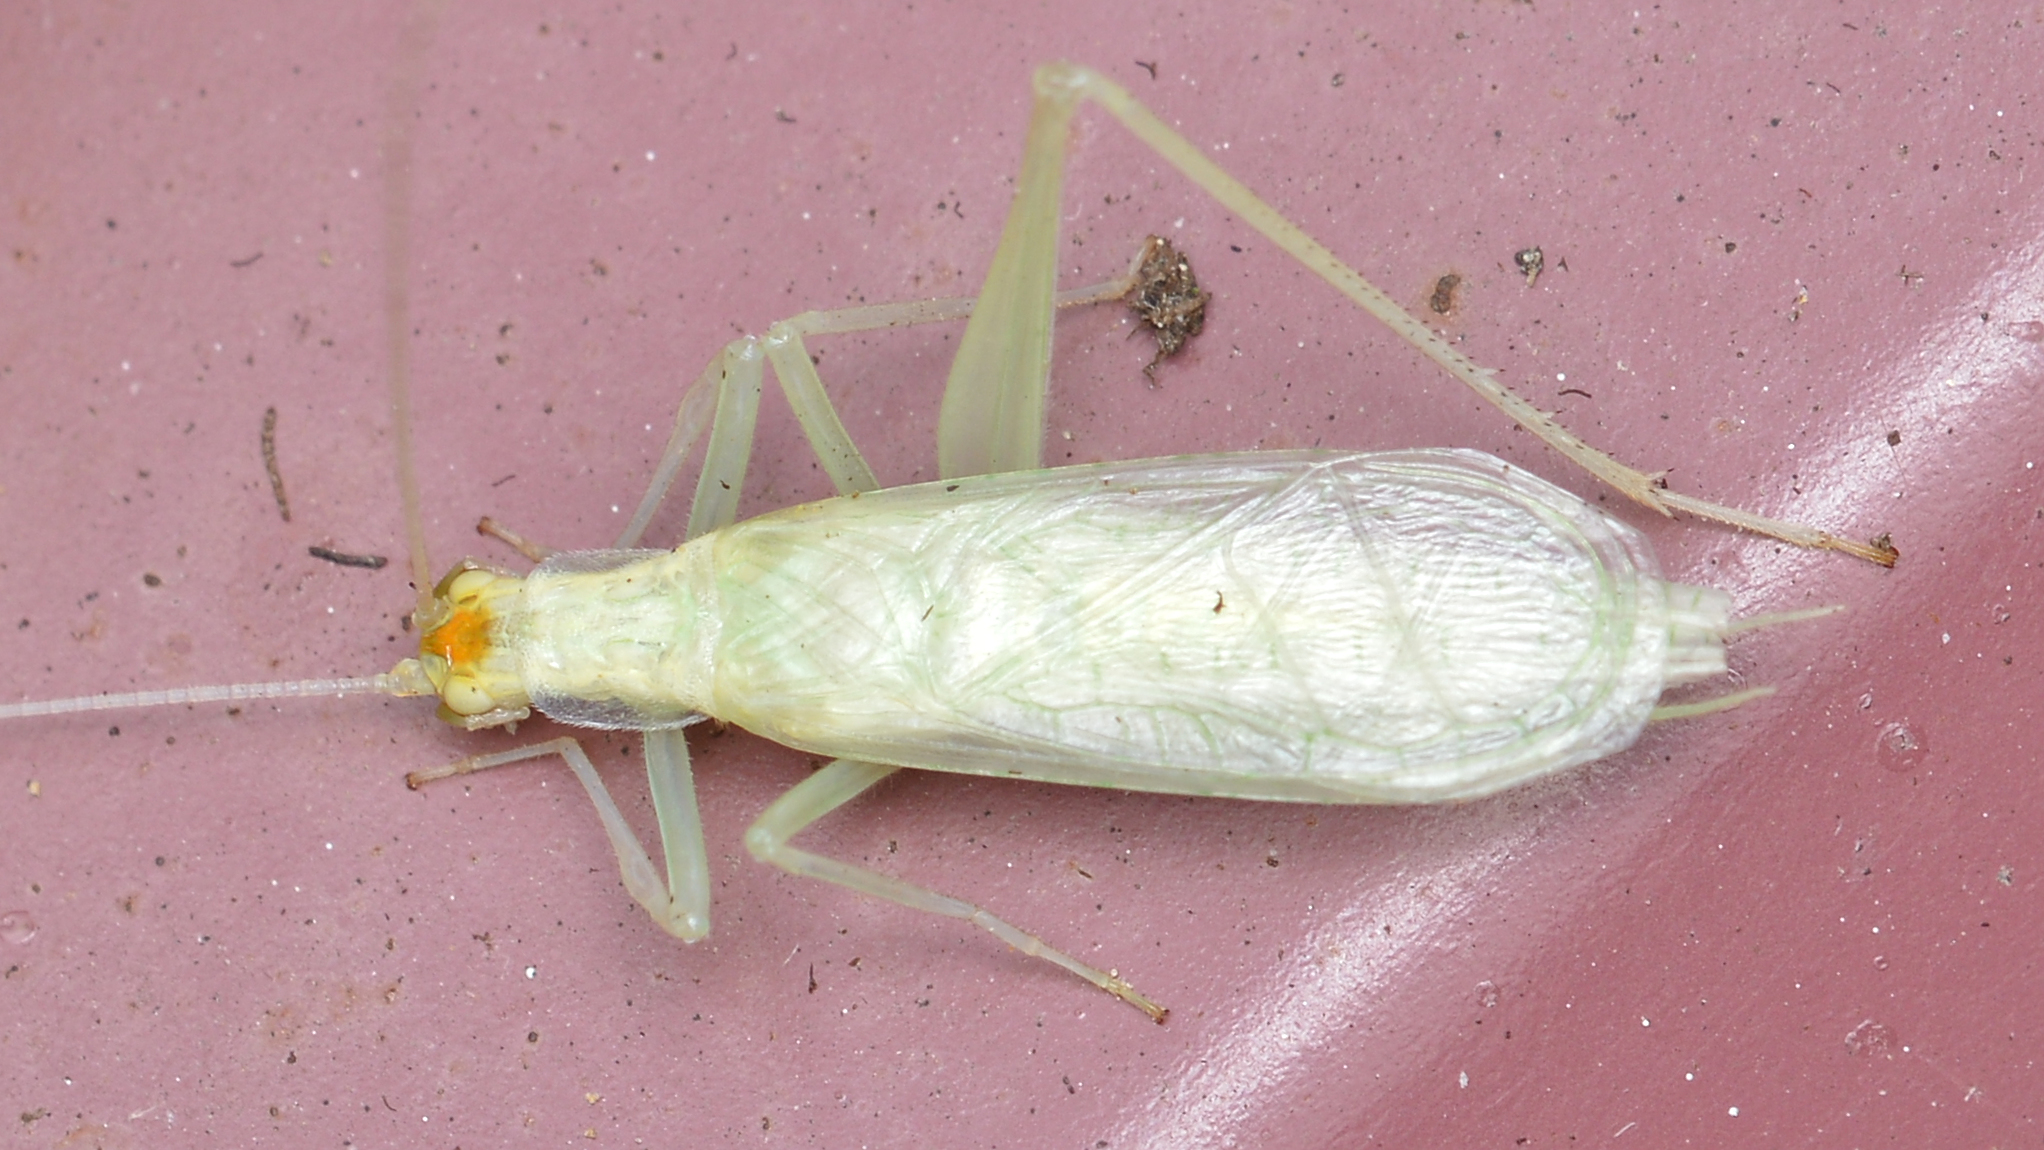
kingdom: Animalia
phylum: Arthropoda
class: Insecta
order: Orthoptera
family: Gryllidae
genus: Oecanthus
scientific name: Oecanthus niveus
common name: Narrow-winged tree cricket
